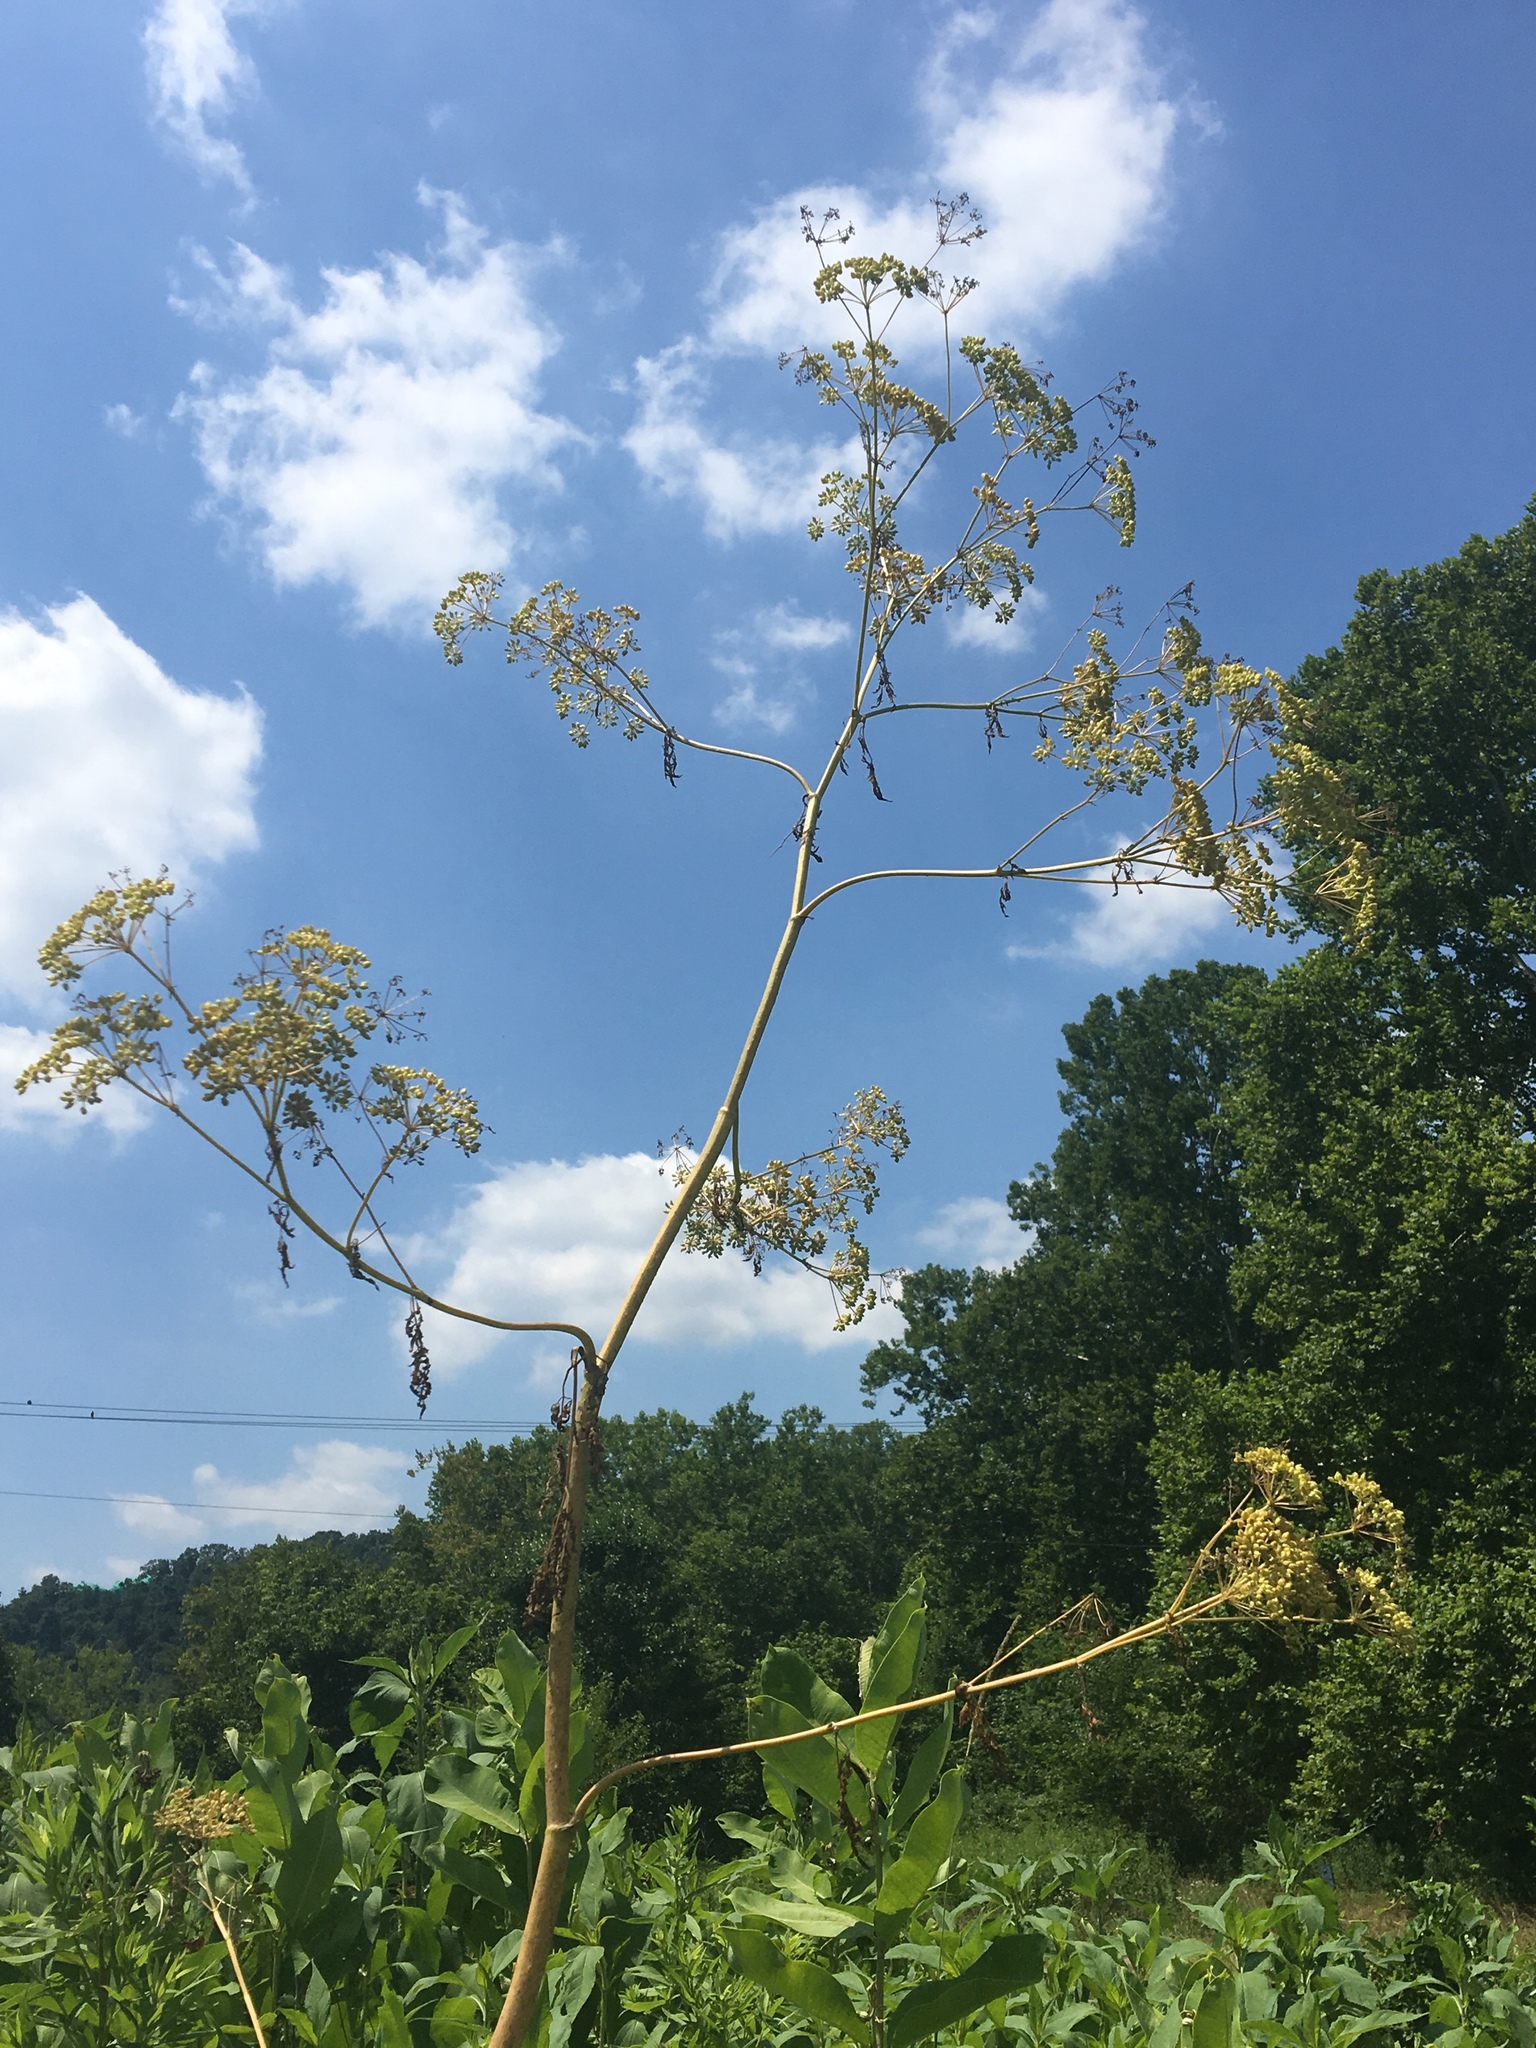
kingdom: Plantae
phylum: Tracheophyta
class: Magnoliopsida
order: Apiales
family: Apiaceae
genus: Conium
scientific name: Conium maculatum
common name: Hemlock
